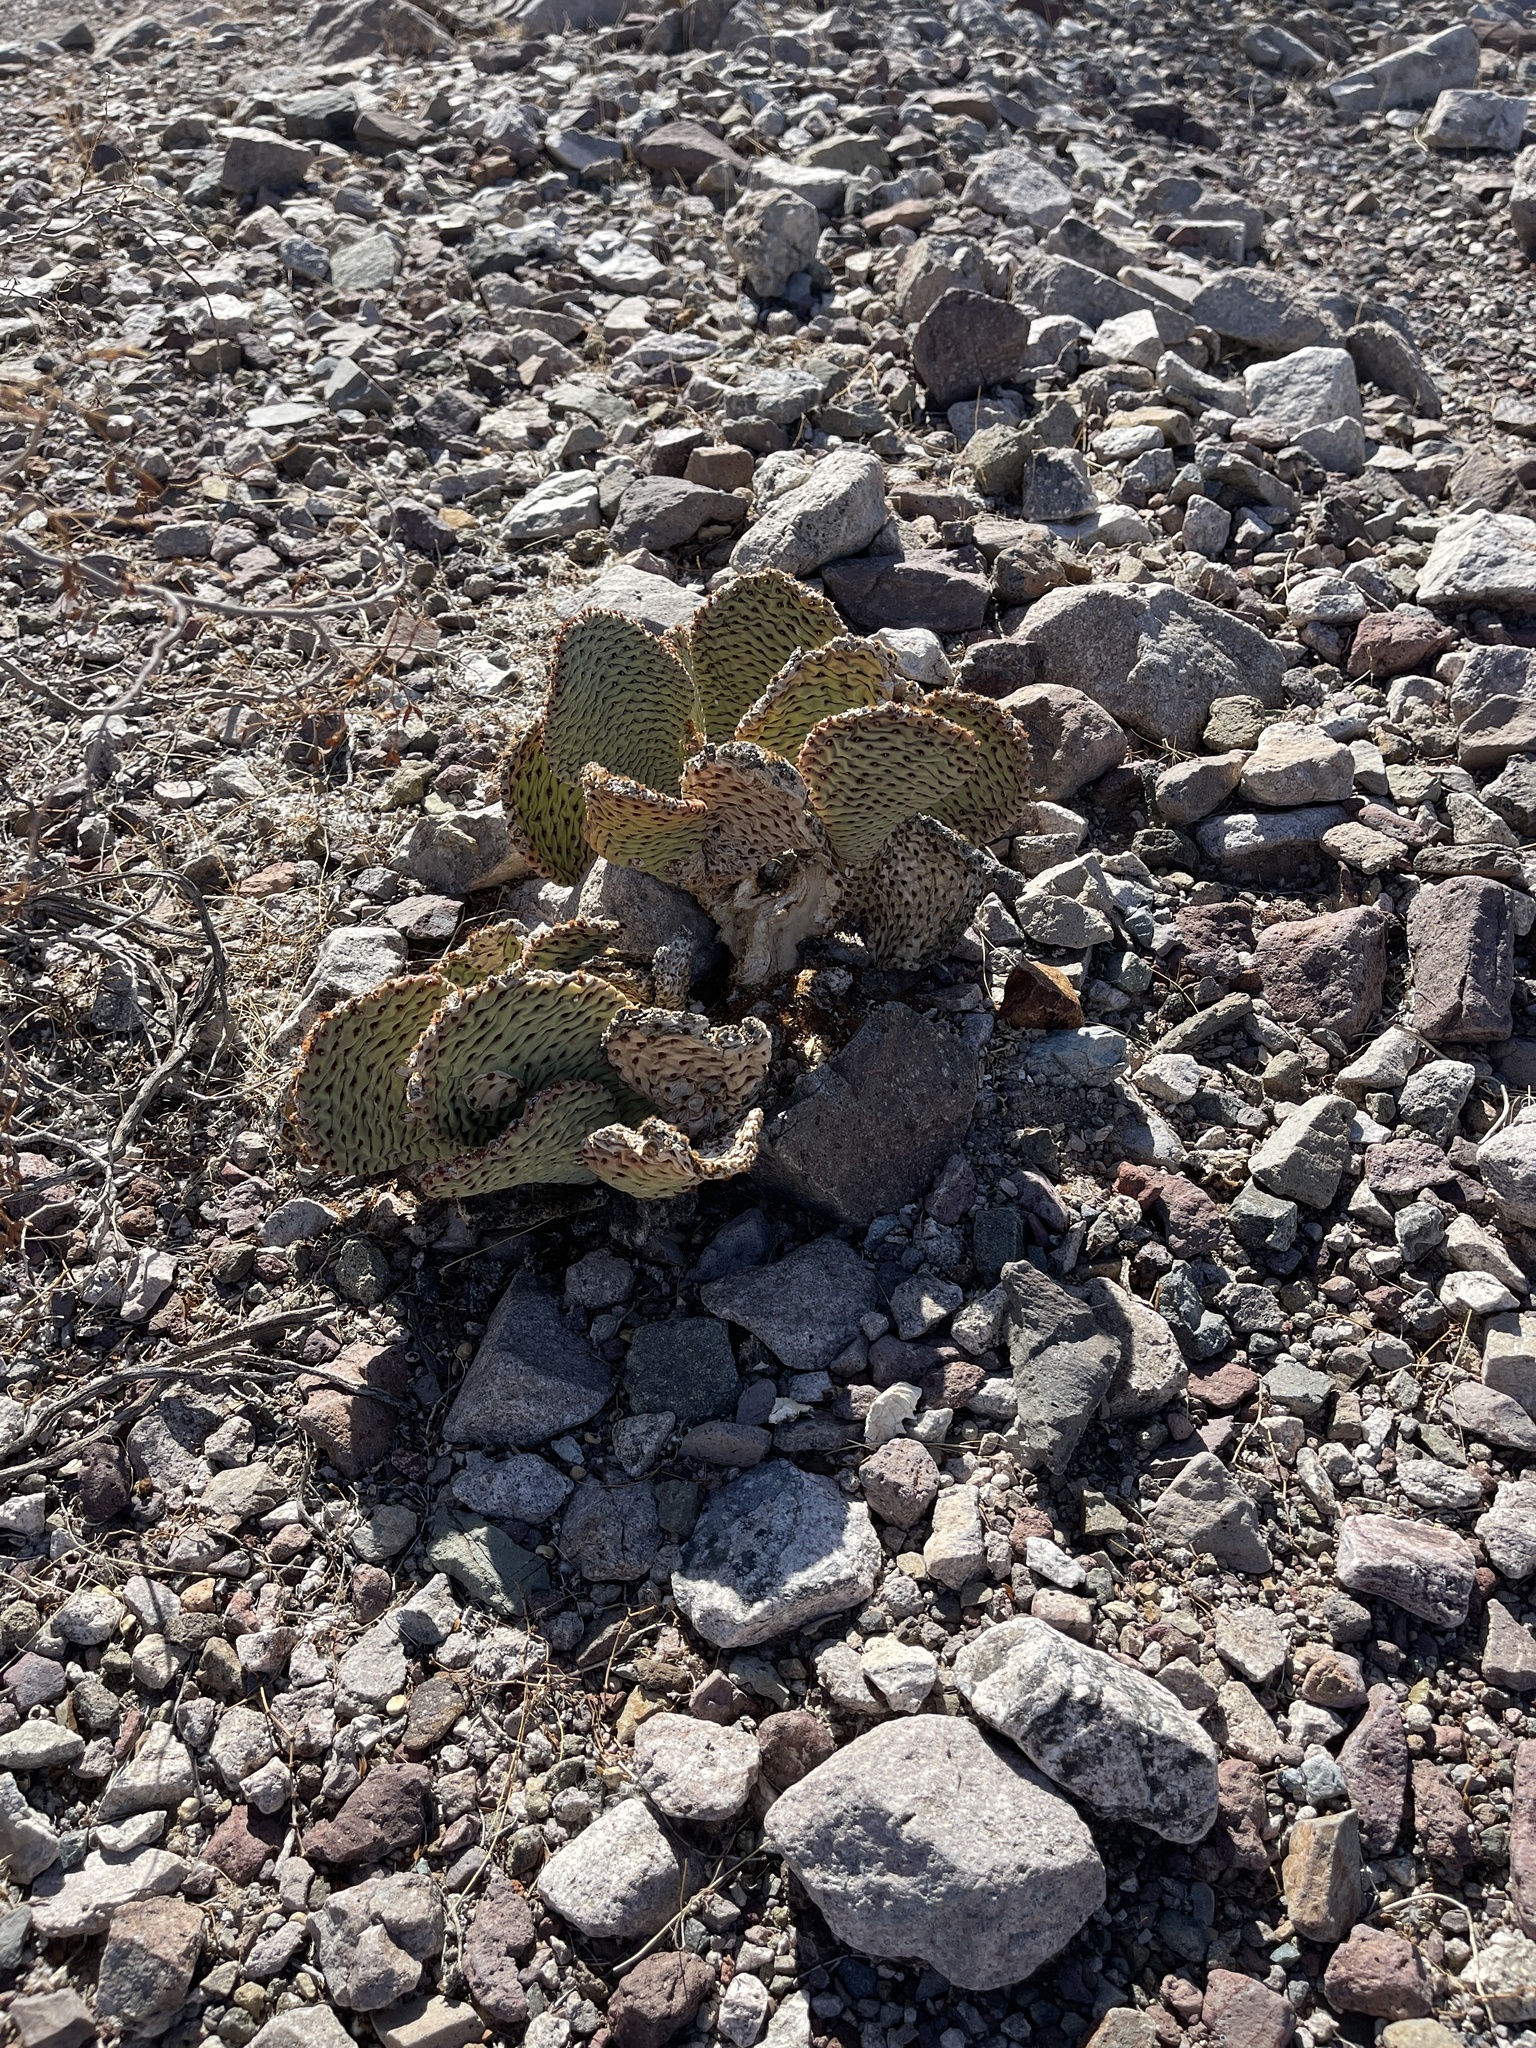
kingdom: Plantae
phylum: Tracheophyta
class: Magnoliopsida
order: Caryophyllales
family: Cactaceae
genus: Opuntia
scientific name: Opuntia basilaris
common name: Beavertail prickly-pear
